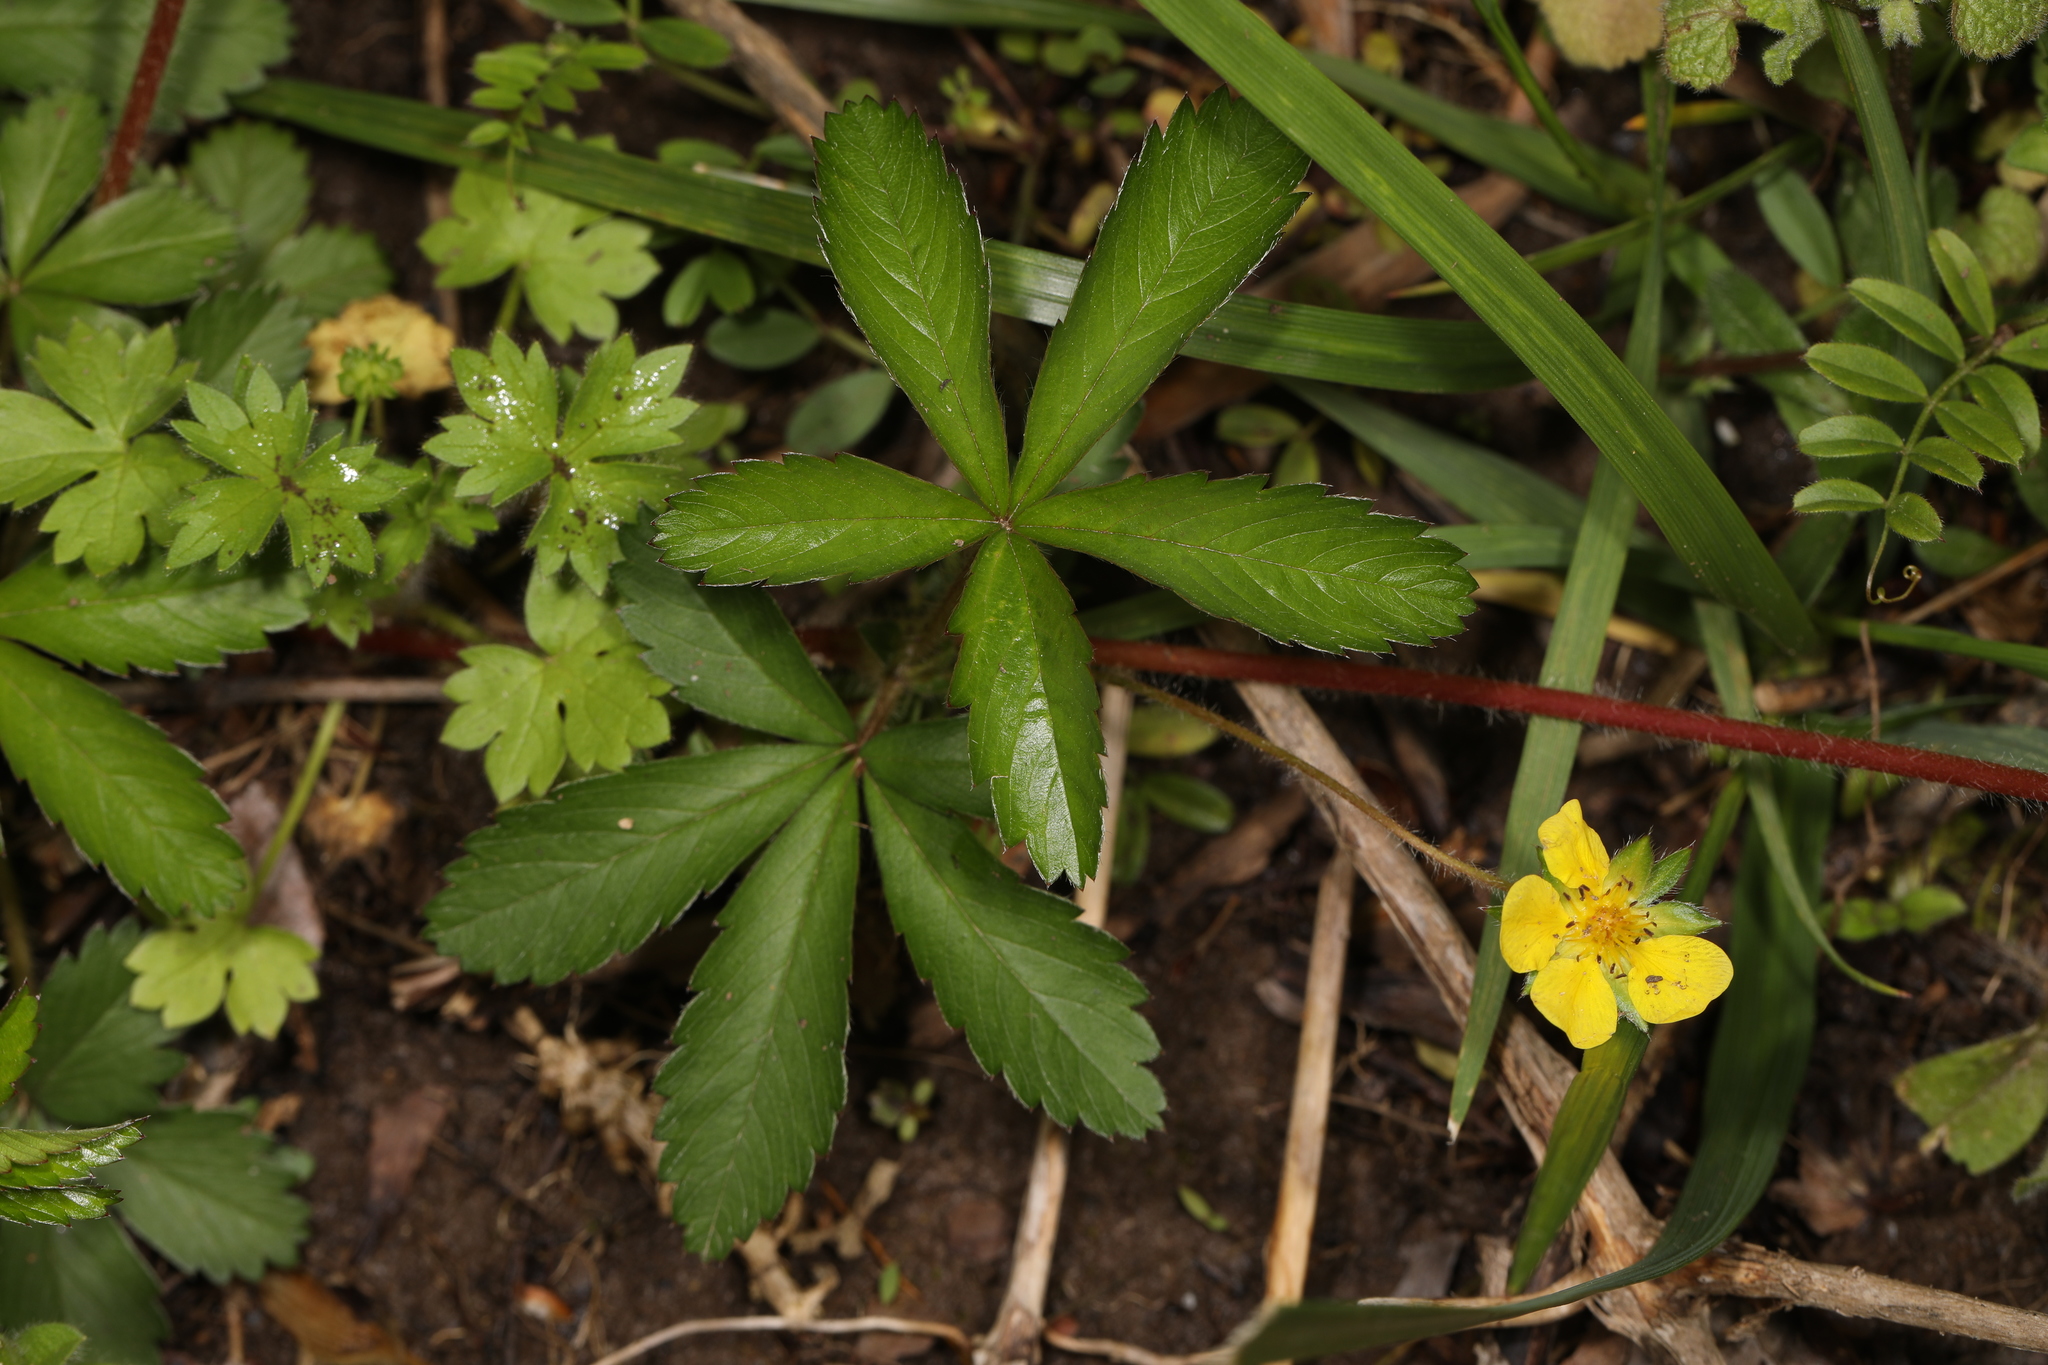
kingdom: Plantae
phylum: Tracheophyta
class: Magnoliopsida
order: Rosales
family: Rosaceae
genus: Potentilla
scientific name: Potentilla simplex
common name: Old field cinquefoil
